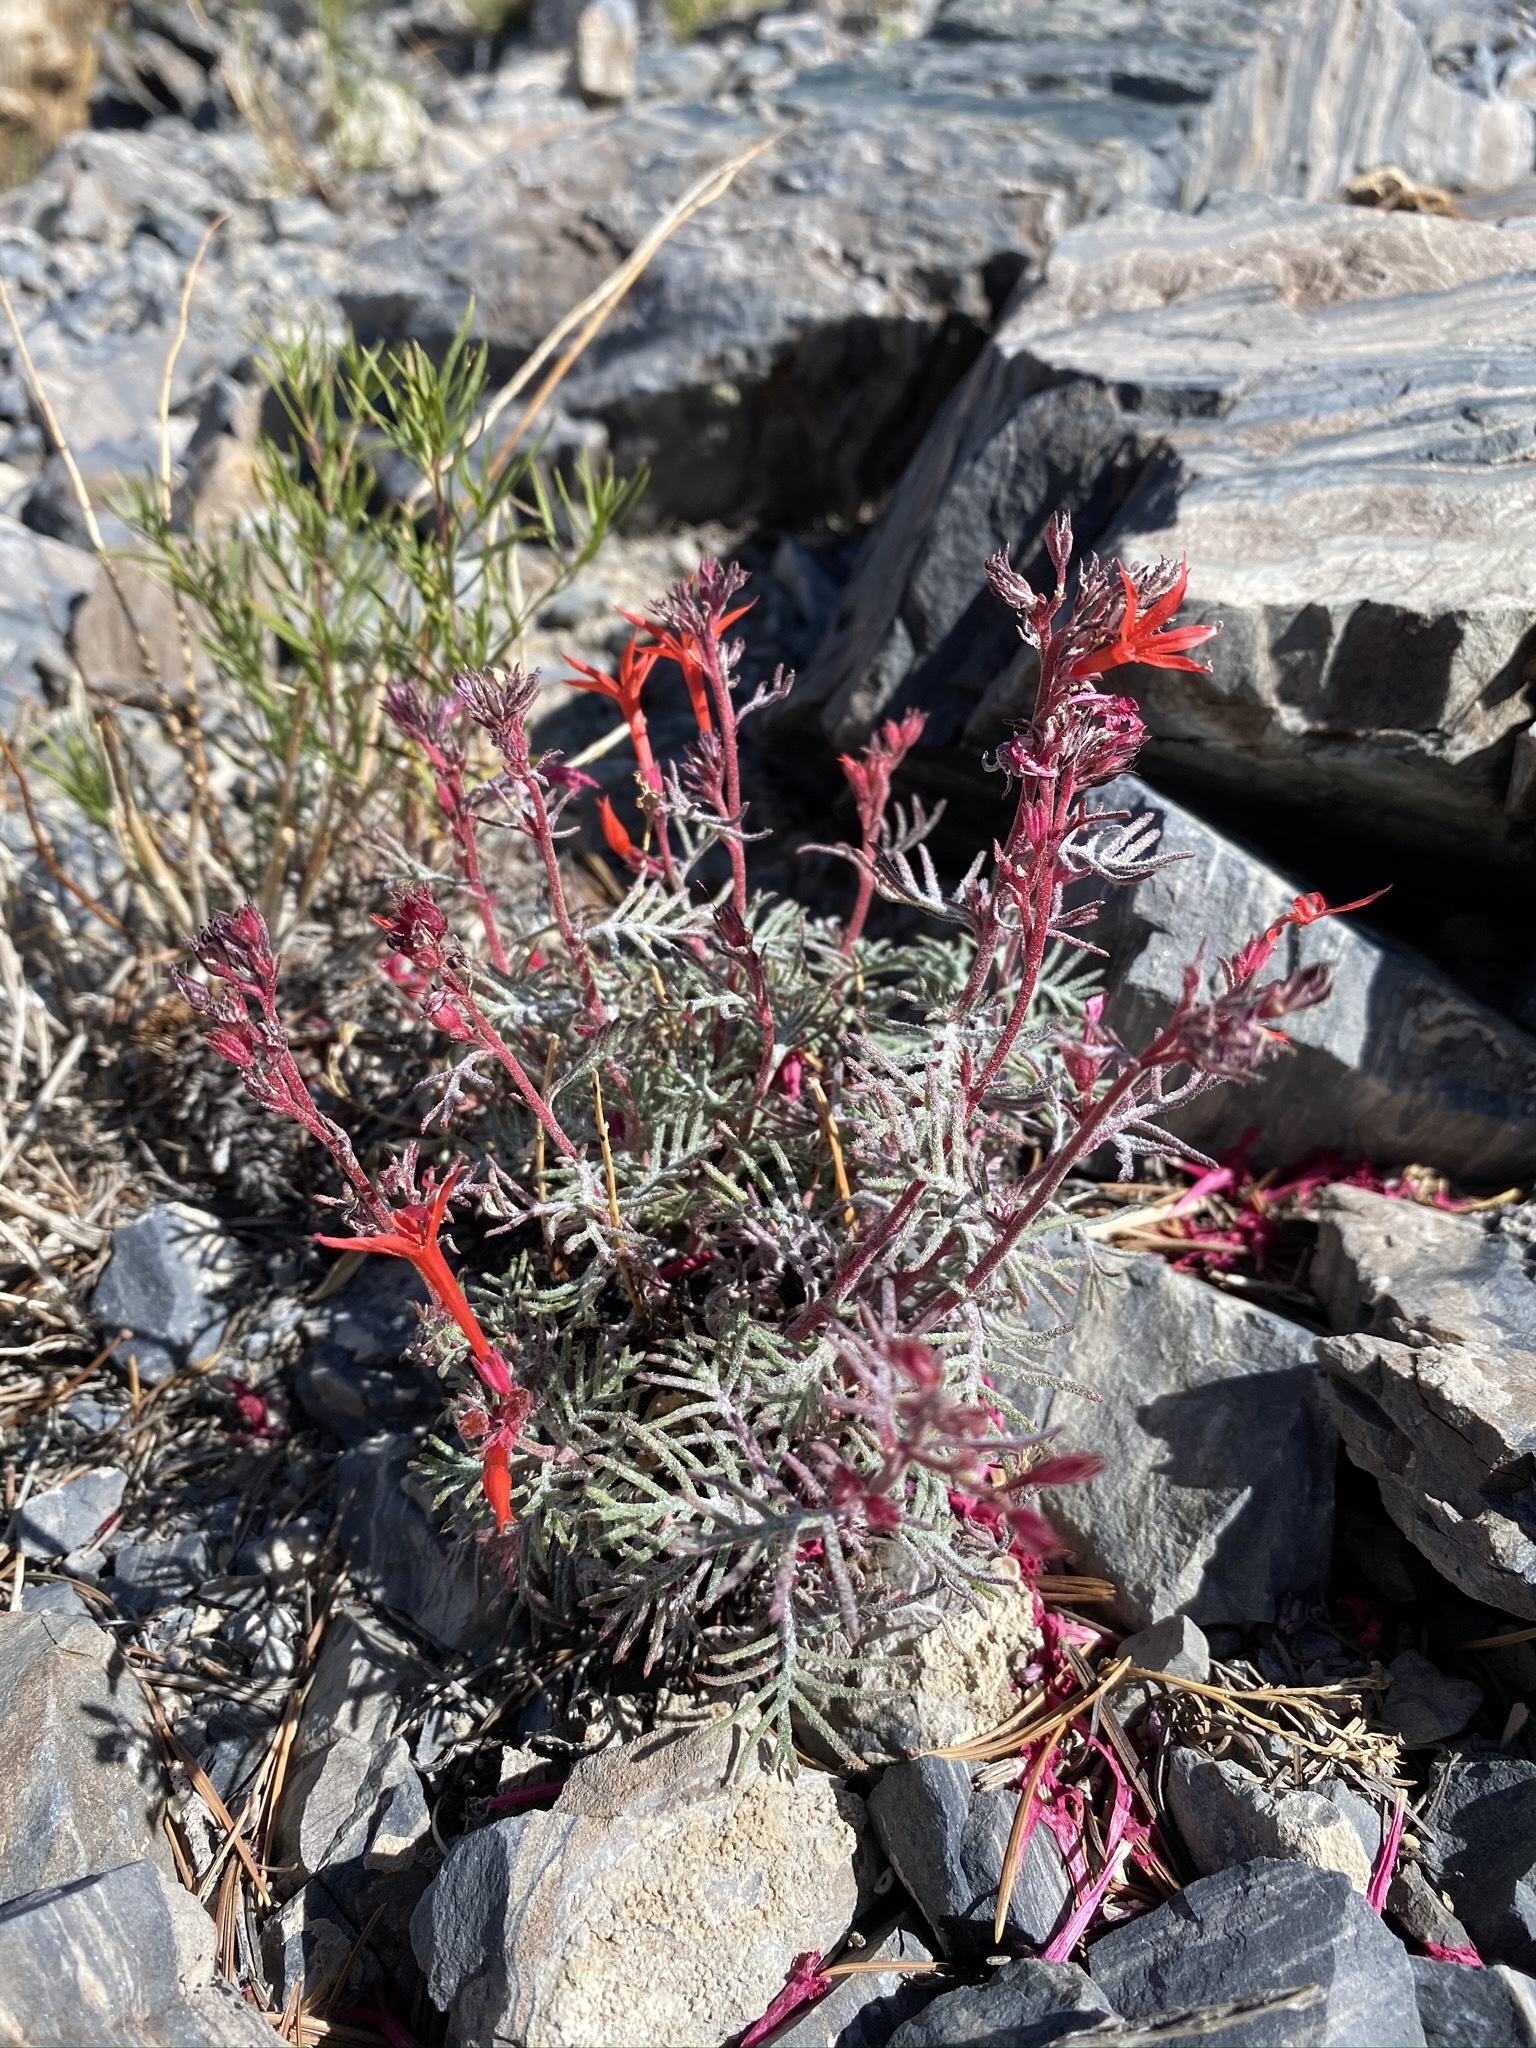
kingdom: Plantae
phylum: Tracheophyta
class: Magnoliopsida
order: Ericales
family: Polemoniaceae
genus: Ipomopsis
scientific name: Ipomopsis arizonica
